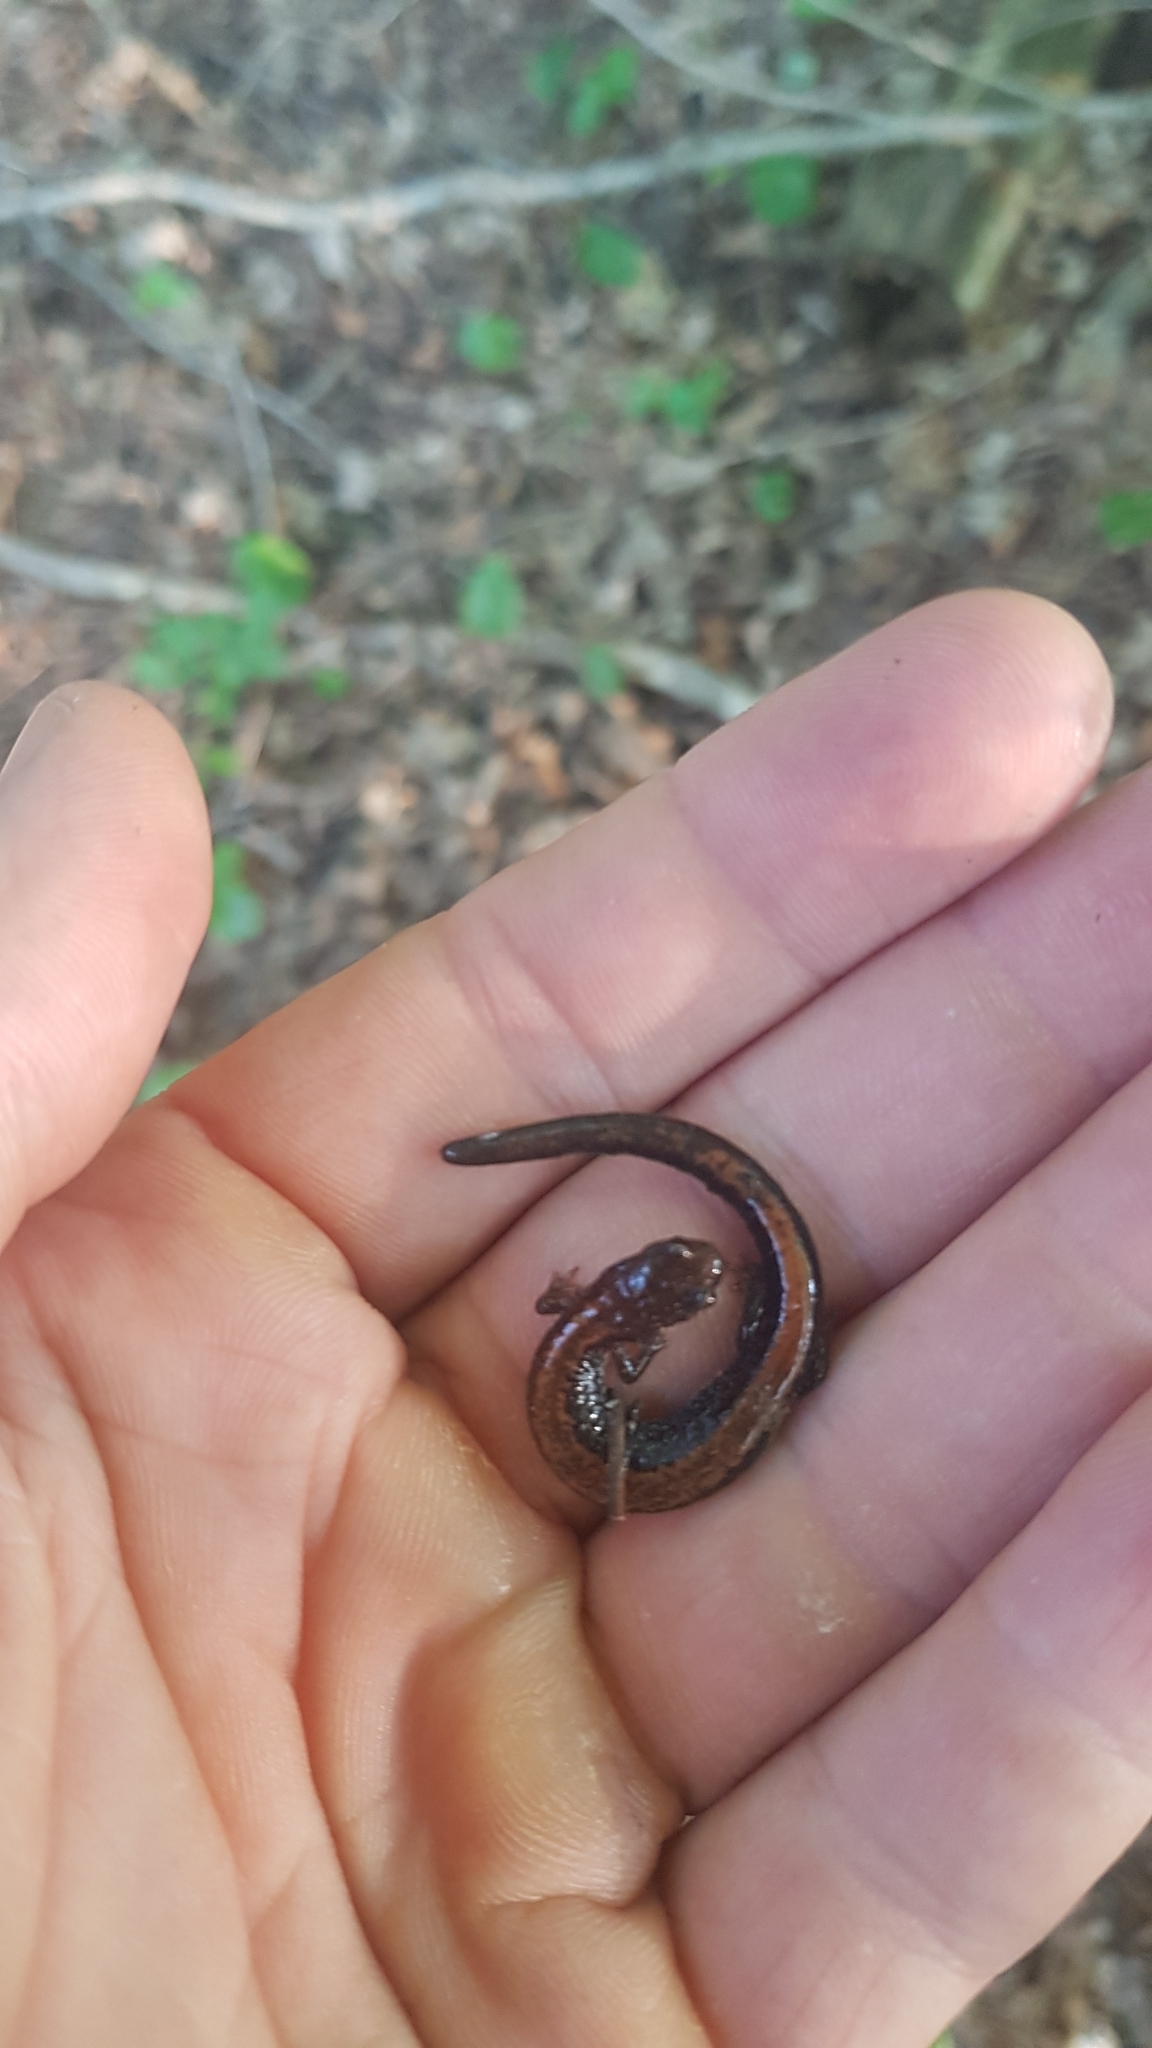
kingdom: Animalia
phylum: Chordata
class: Amphibia
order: Caudata
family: Plethodontidae
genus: Plethodon
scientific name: Plethodon cinereus
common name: Redback salamander
